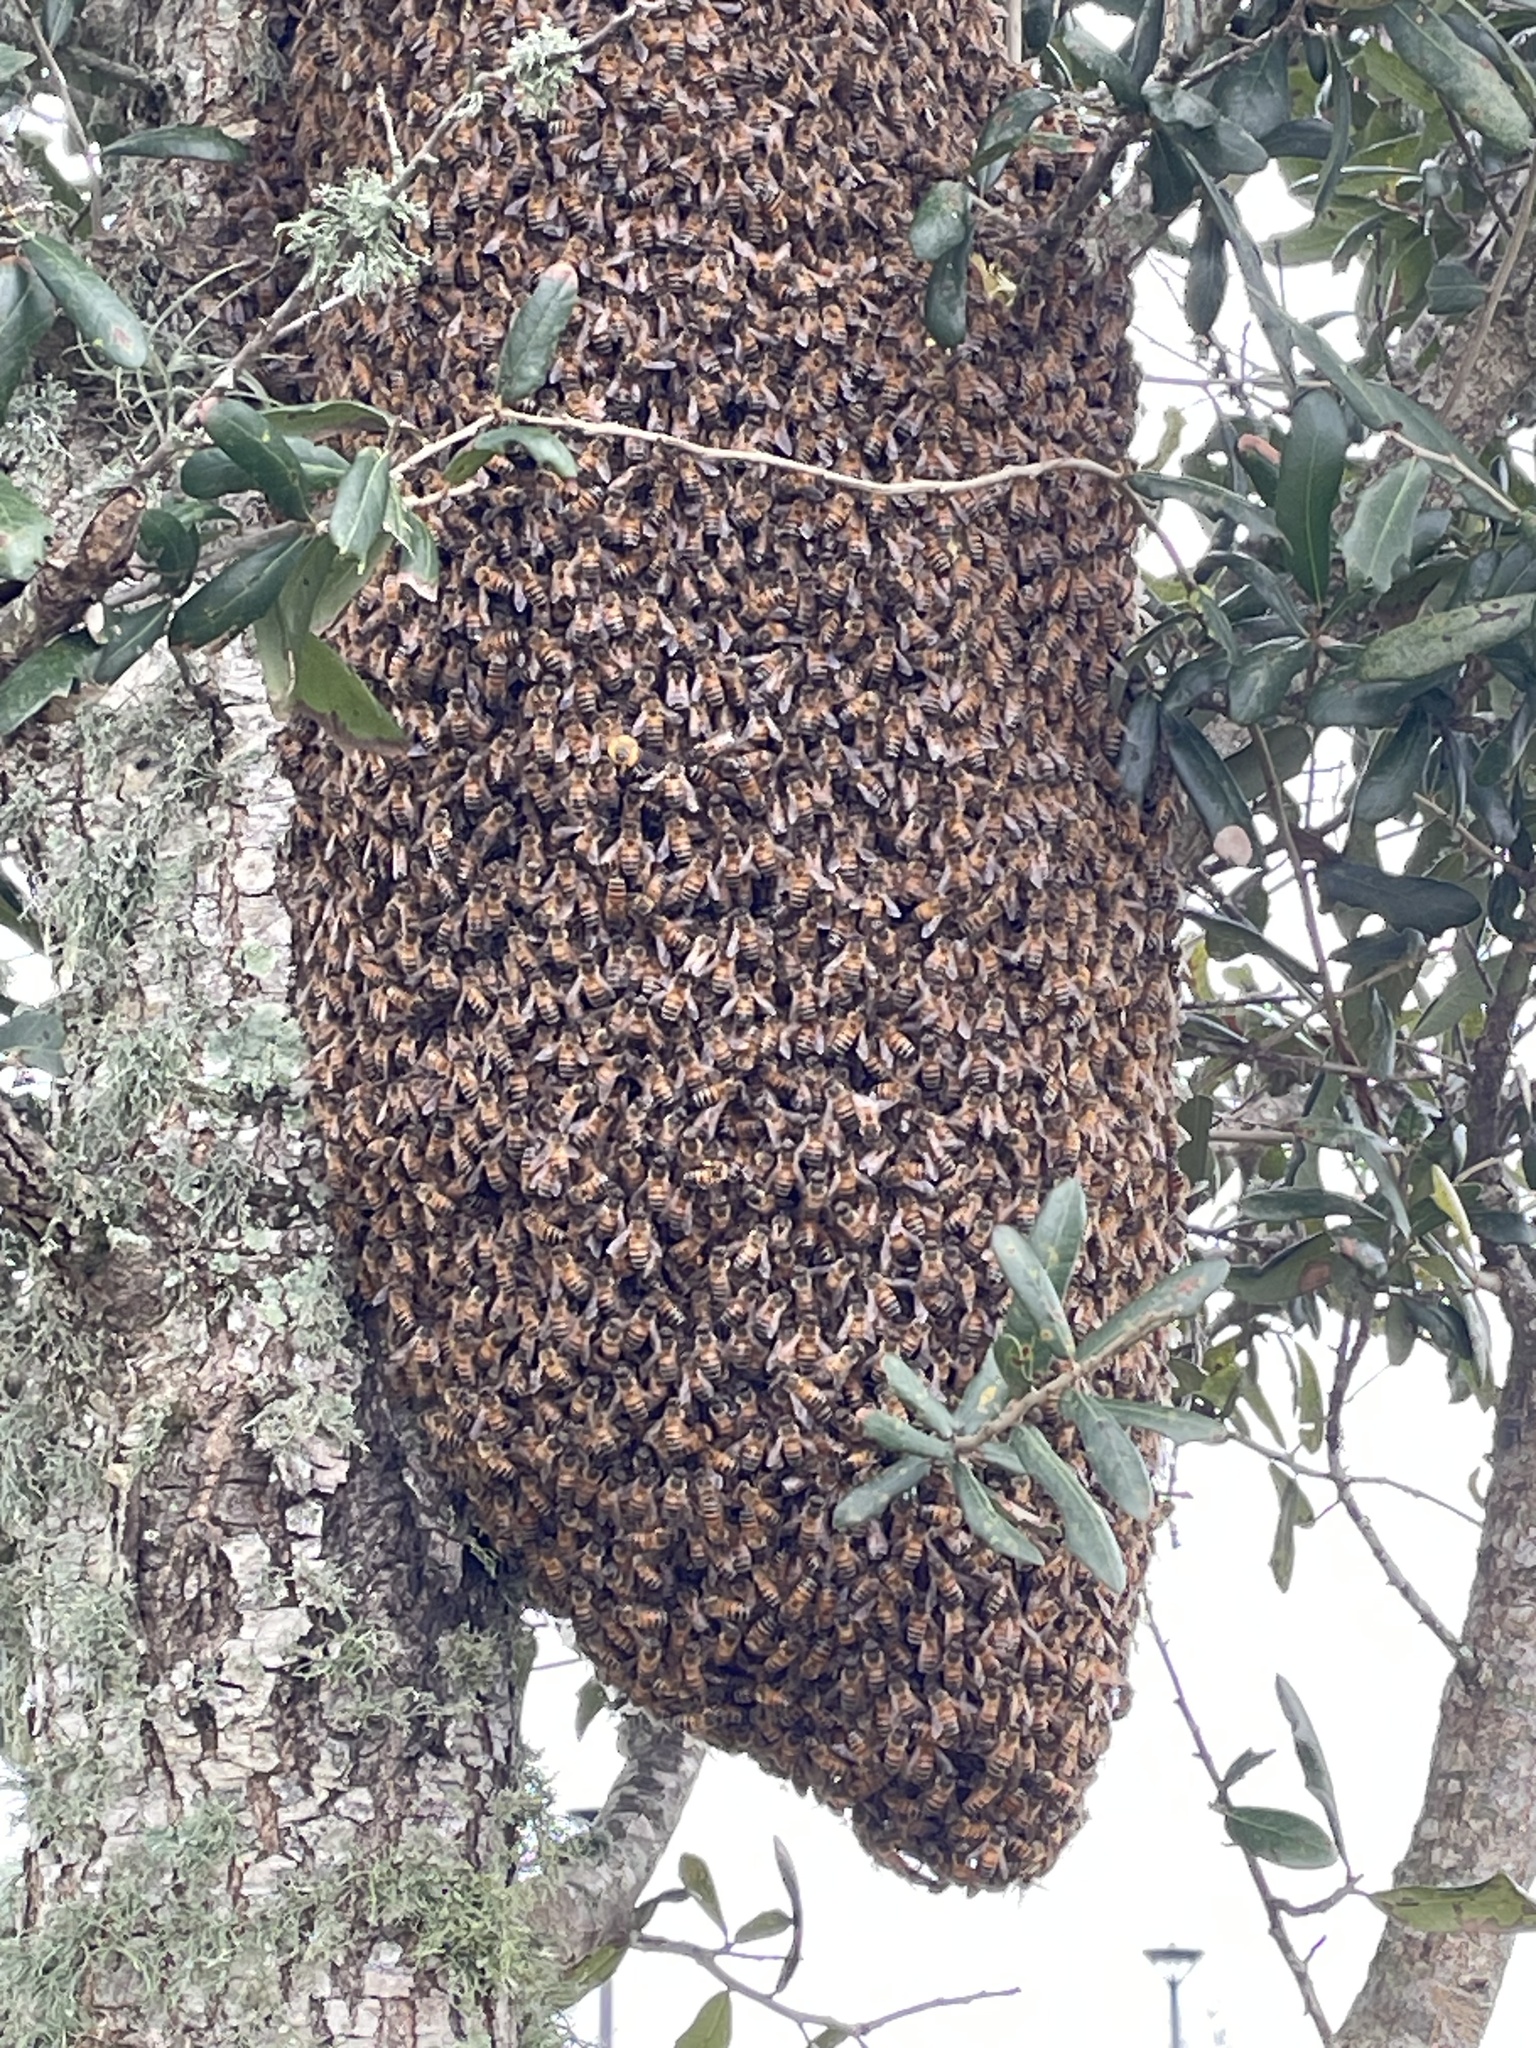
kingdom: Animalia
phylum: Arthropoda
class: Insecta
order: Hymenoptera
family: Apidae
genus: Apis
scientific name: Apis mellifera
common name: Honey bee
